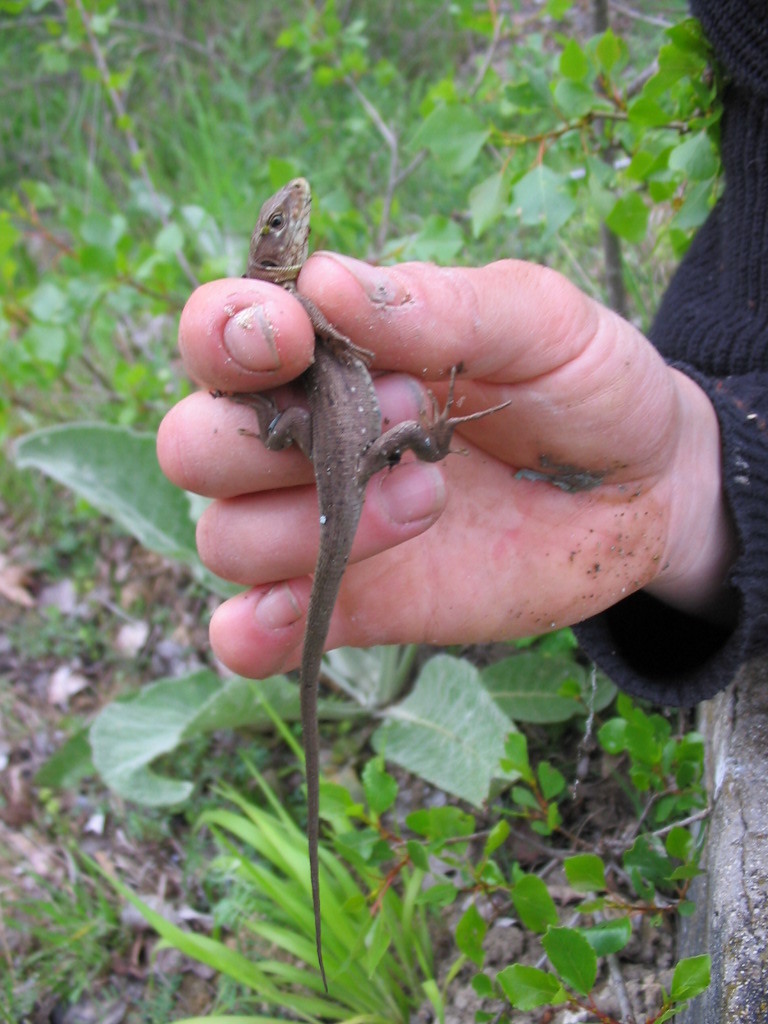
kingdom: Animalia
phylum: Chordata
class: Squamata
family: Lacertidae
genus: Lacerta
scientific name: Lacerta viridis
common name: European green lizard
